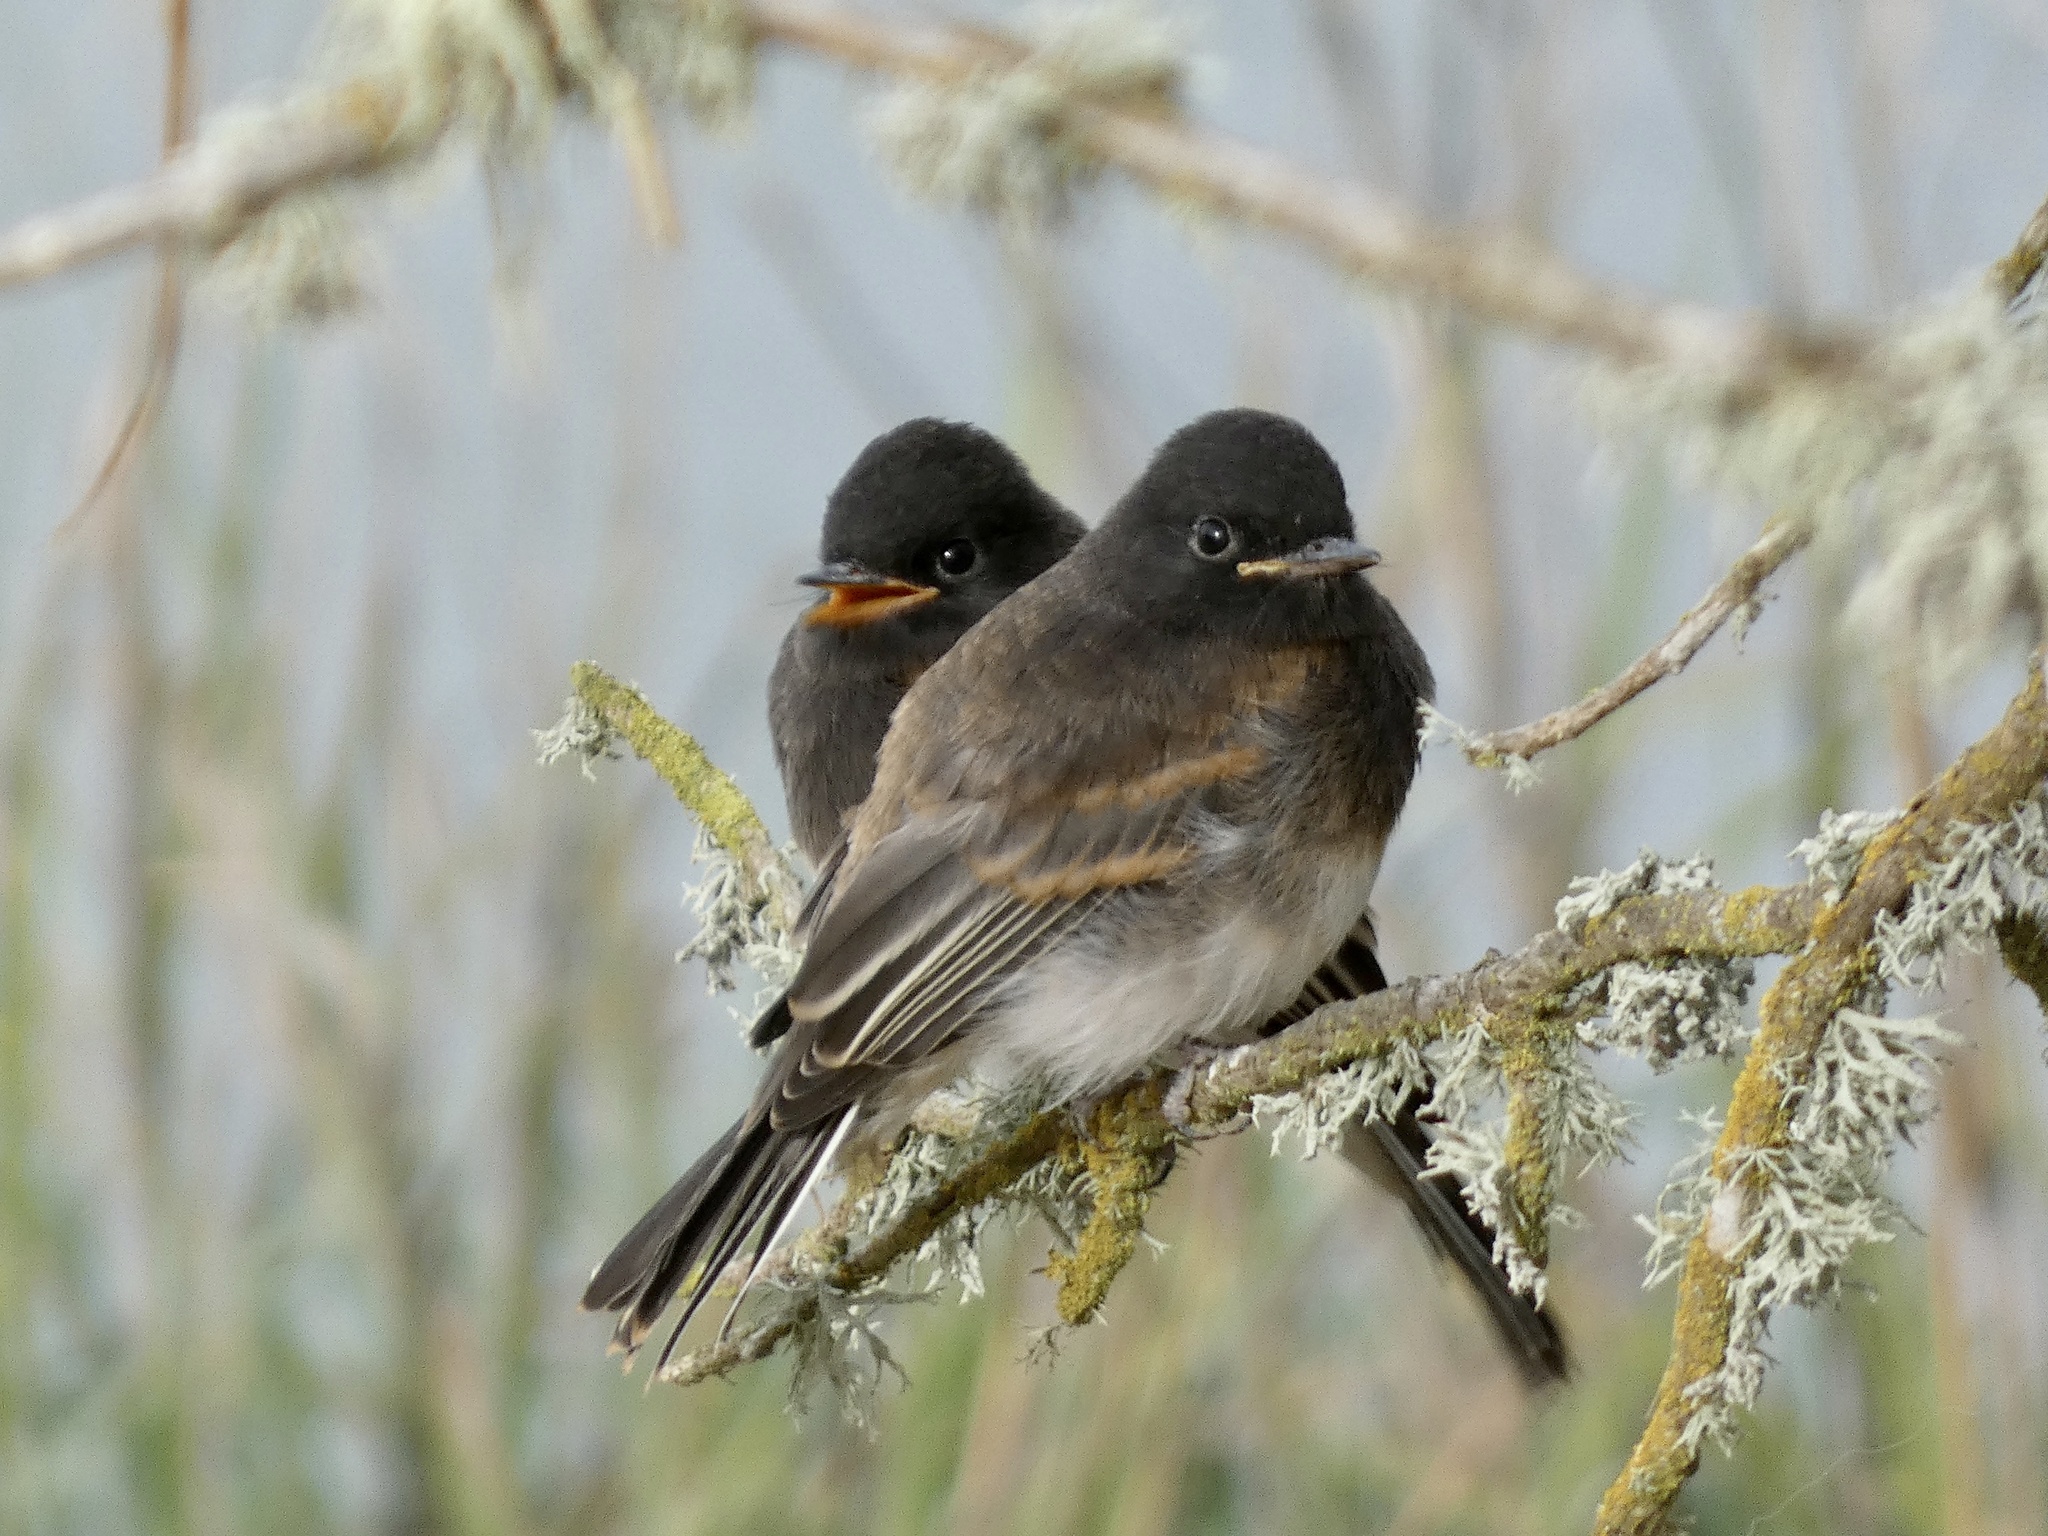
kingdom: Animalia
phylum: Chordata
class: Aves
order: Passeriformes
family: Tyrannidae
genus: Sayornis
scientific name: Sayornis nigricans
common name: Black phoebe
